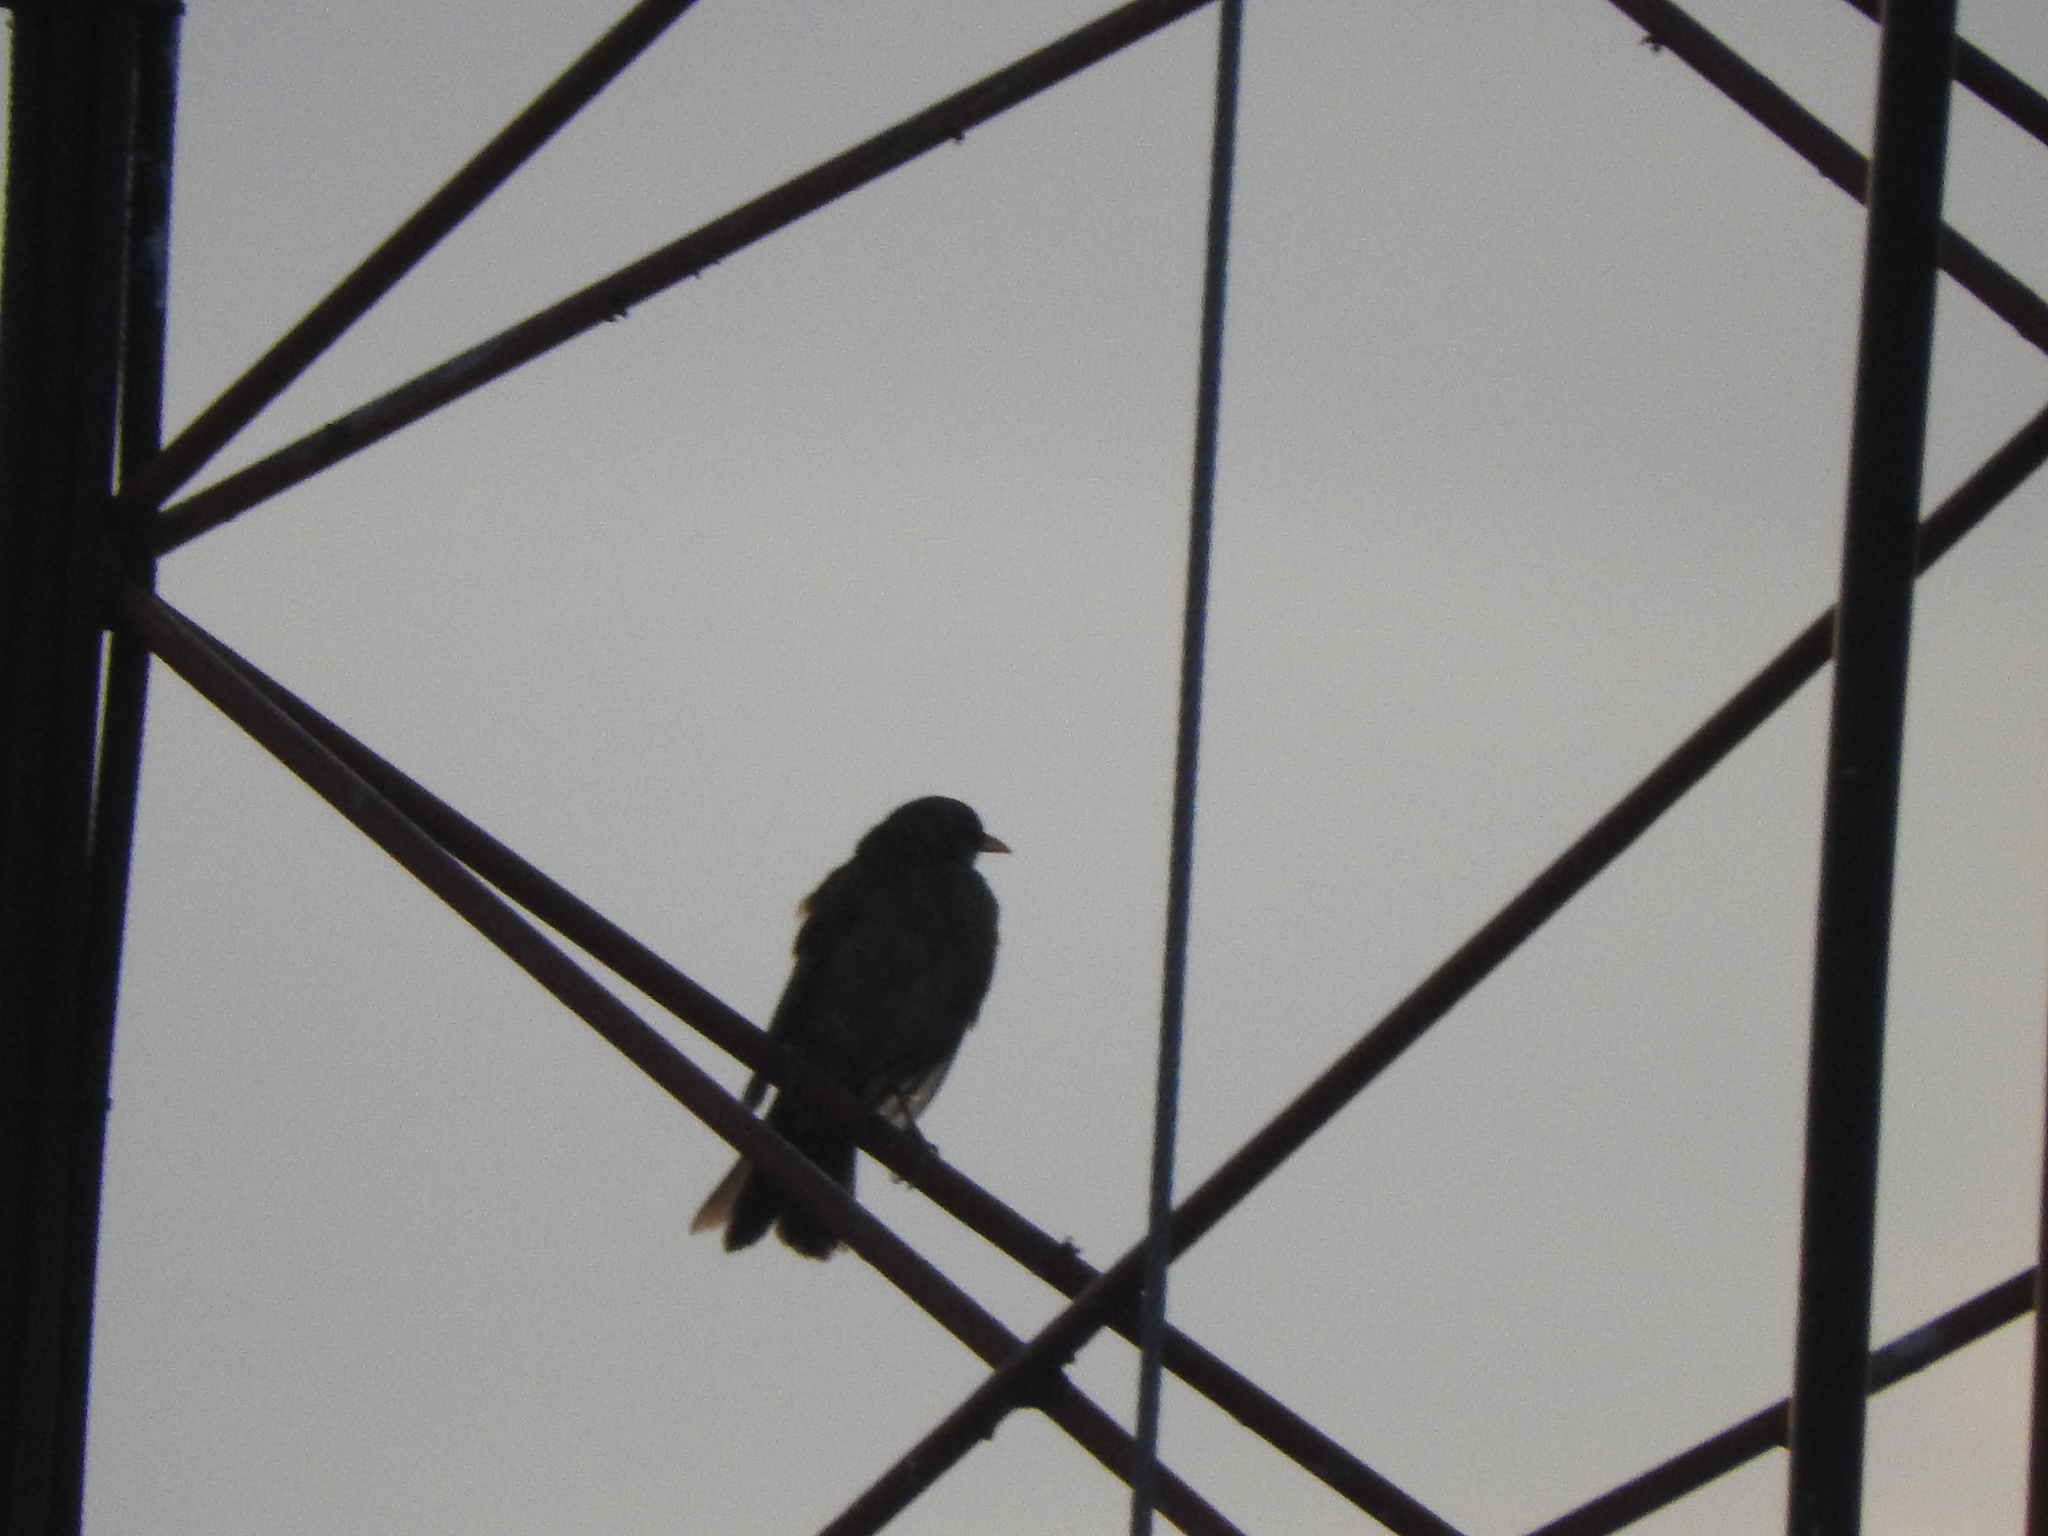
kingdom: Animalia
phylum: Chordata
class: Aves
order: Passeriformes
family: Turdidae
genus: Turdus
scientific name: Turdus rufopalliatus
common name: Rufous-backed robin
